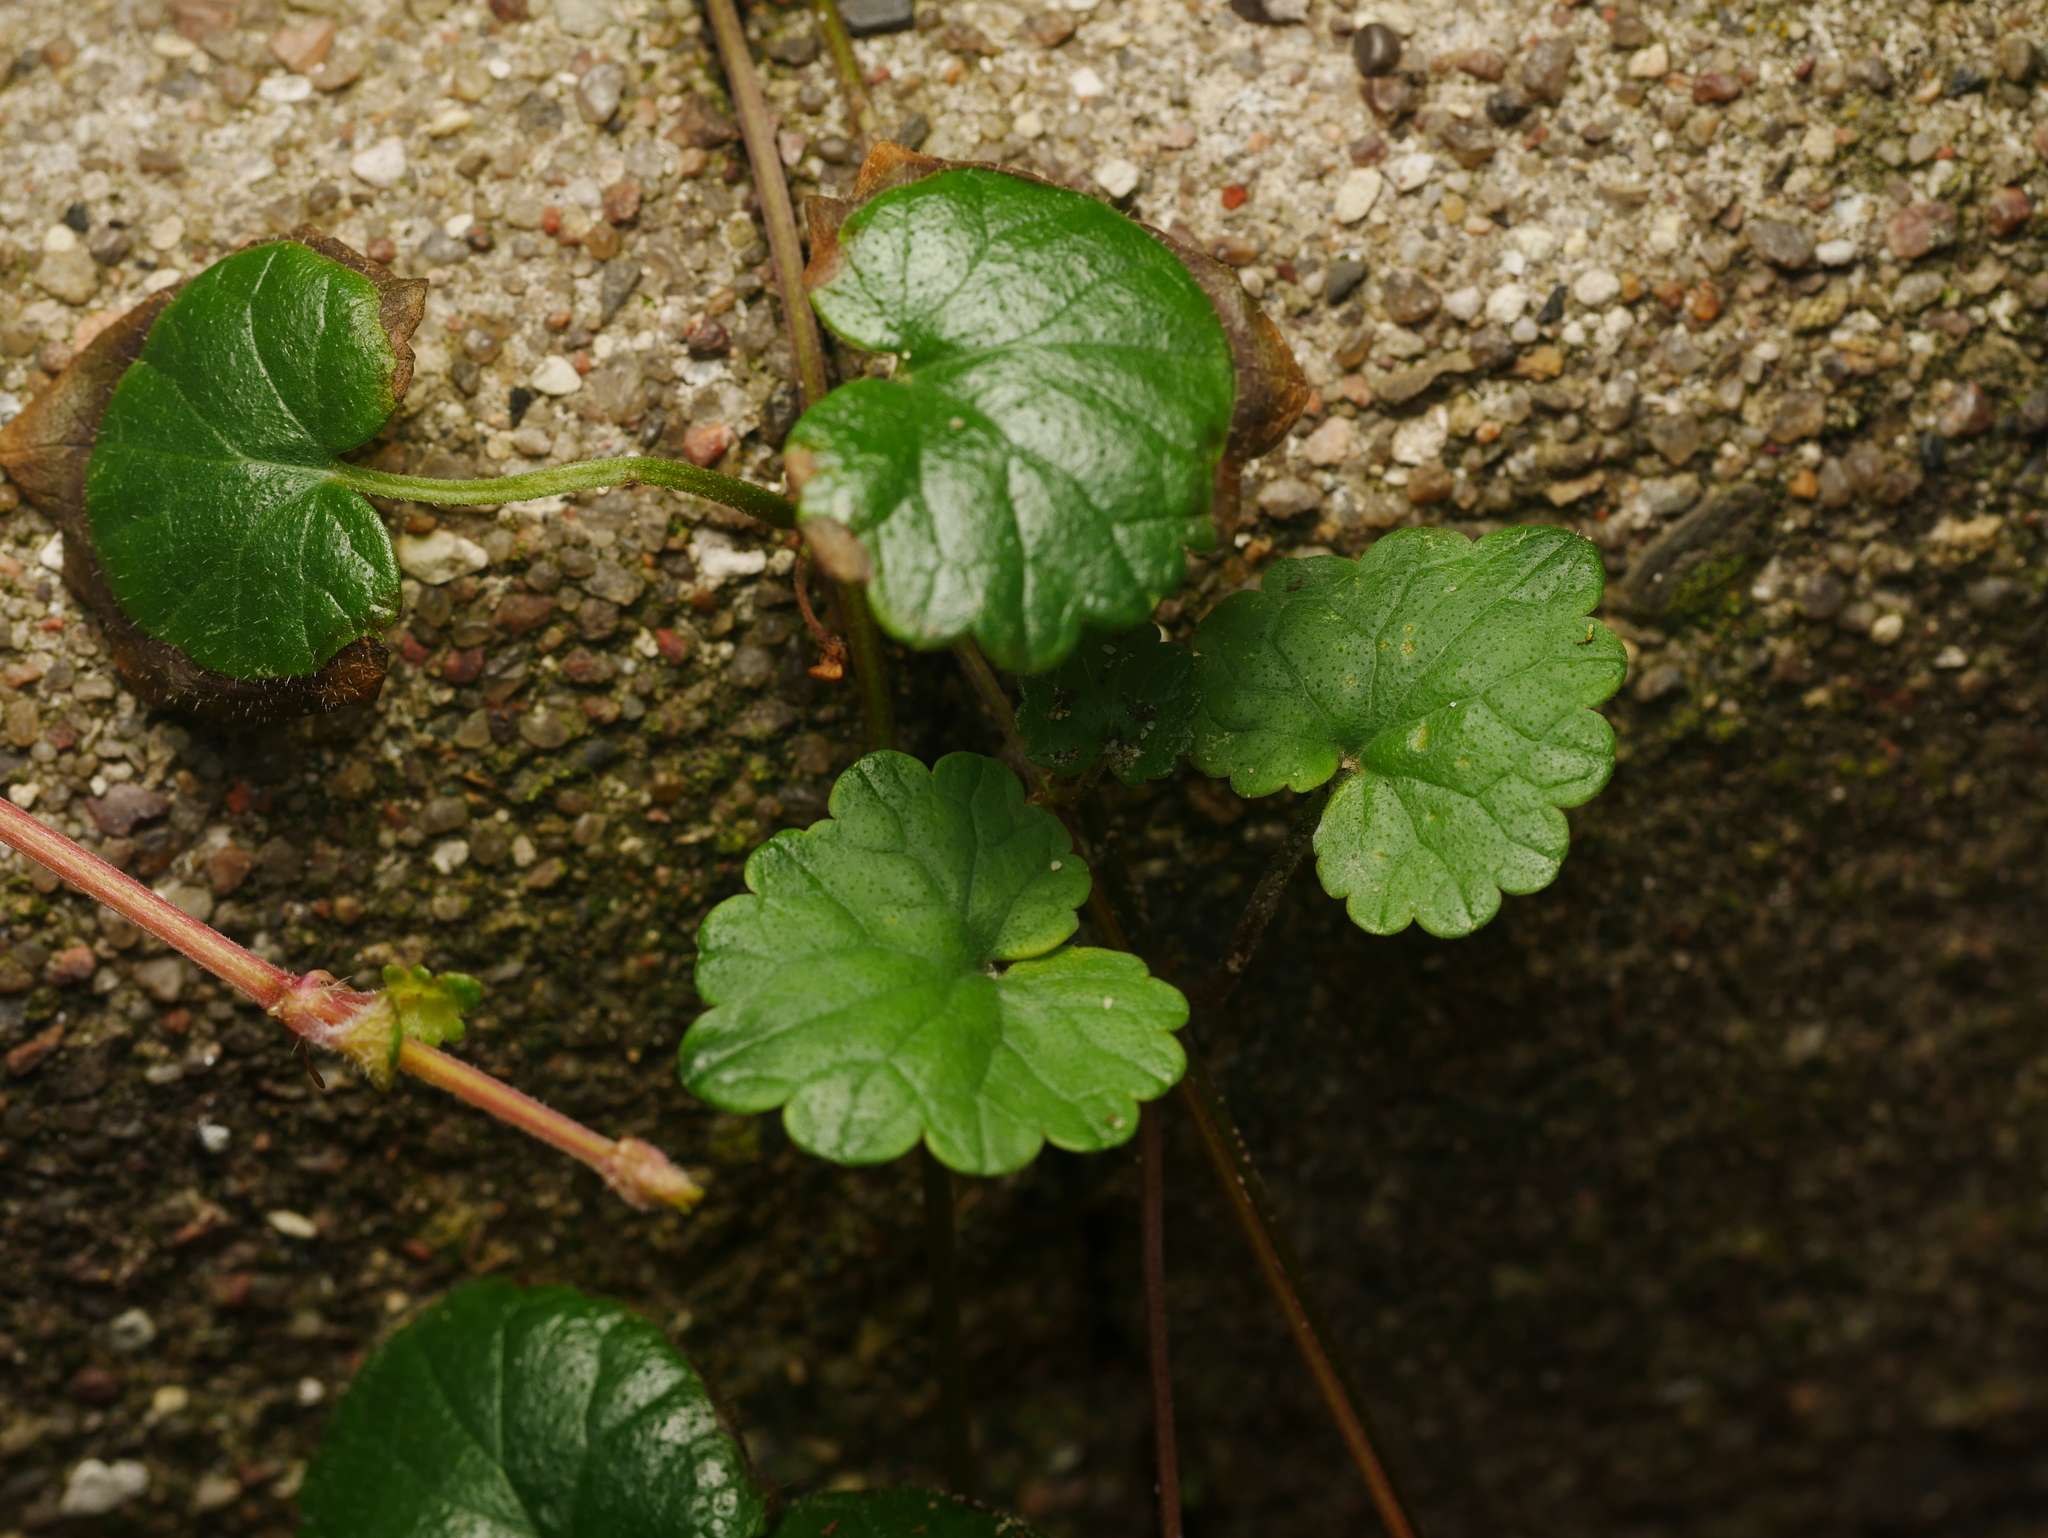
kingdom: Plantae
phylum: Tracheophyta
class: Magnoliopsida
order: Lamiales
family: Lamiaceae
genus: Glechoma
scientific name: Glechoma hederacea
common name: Ground ivy
